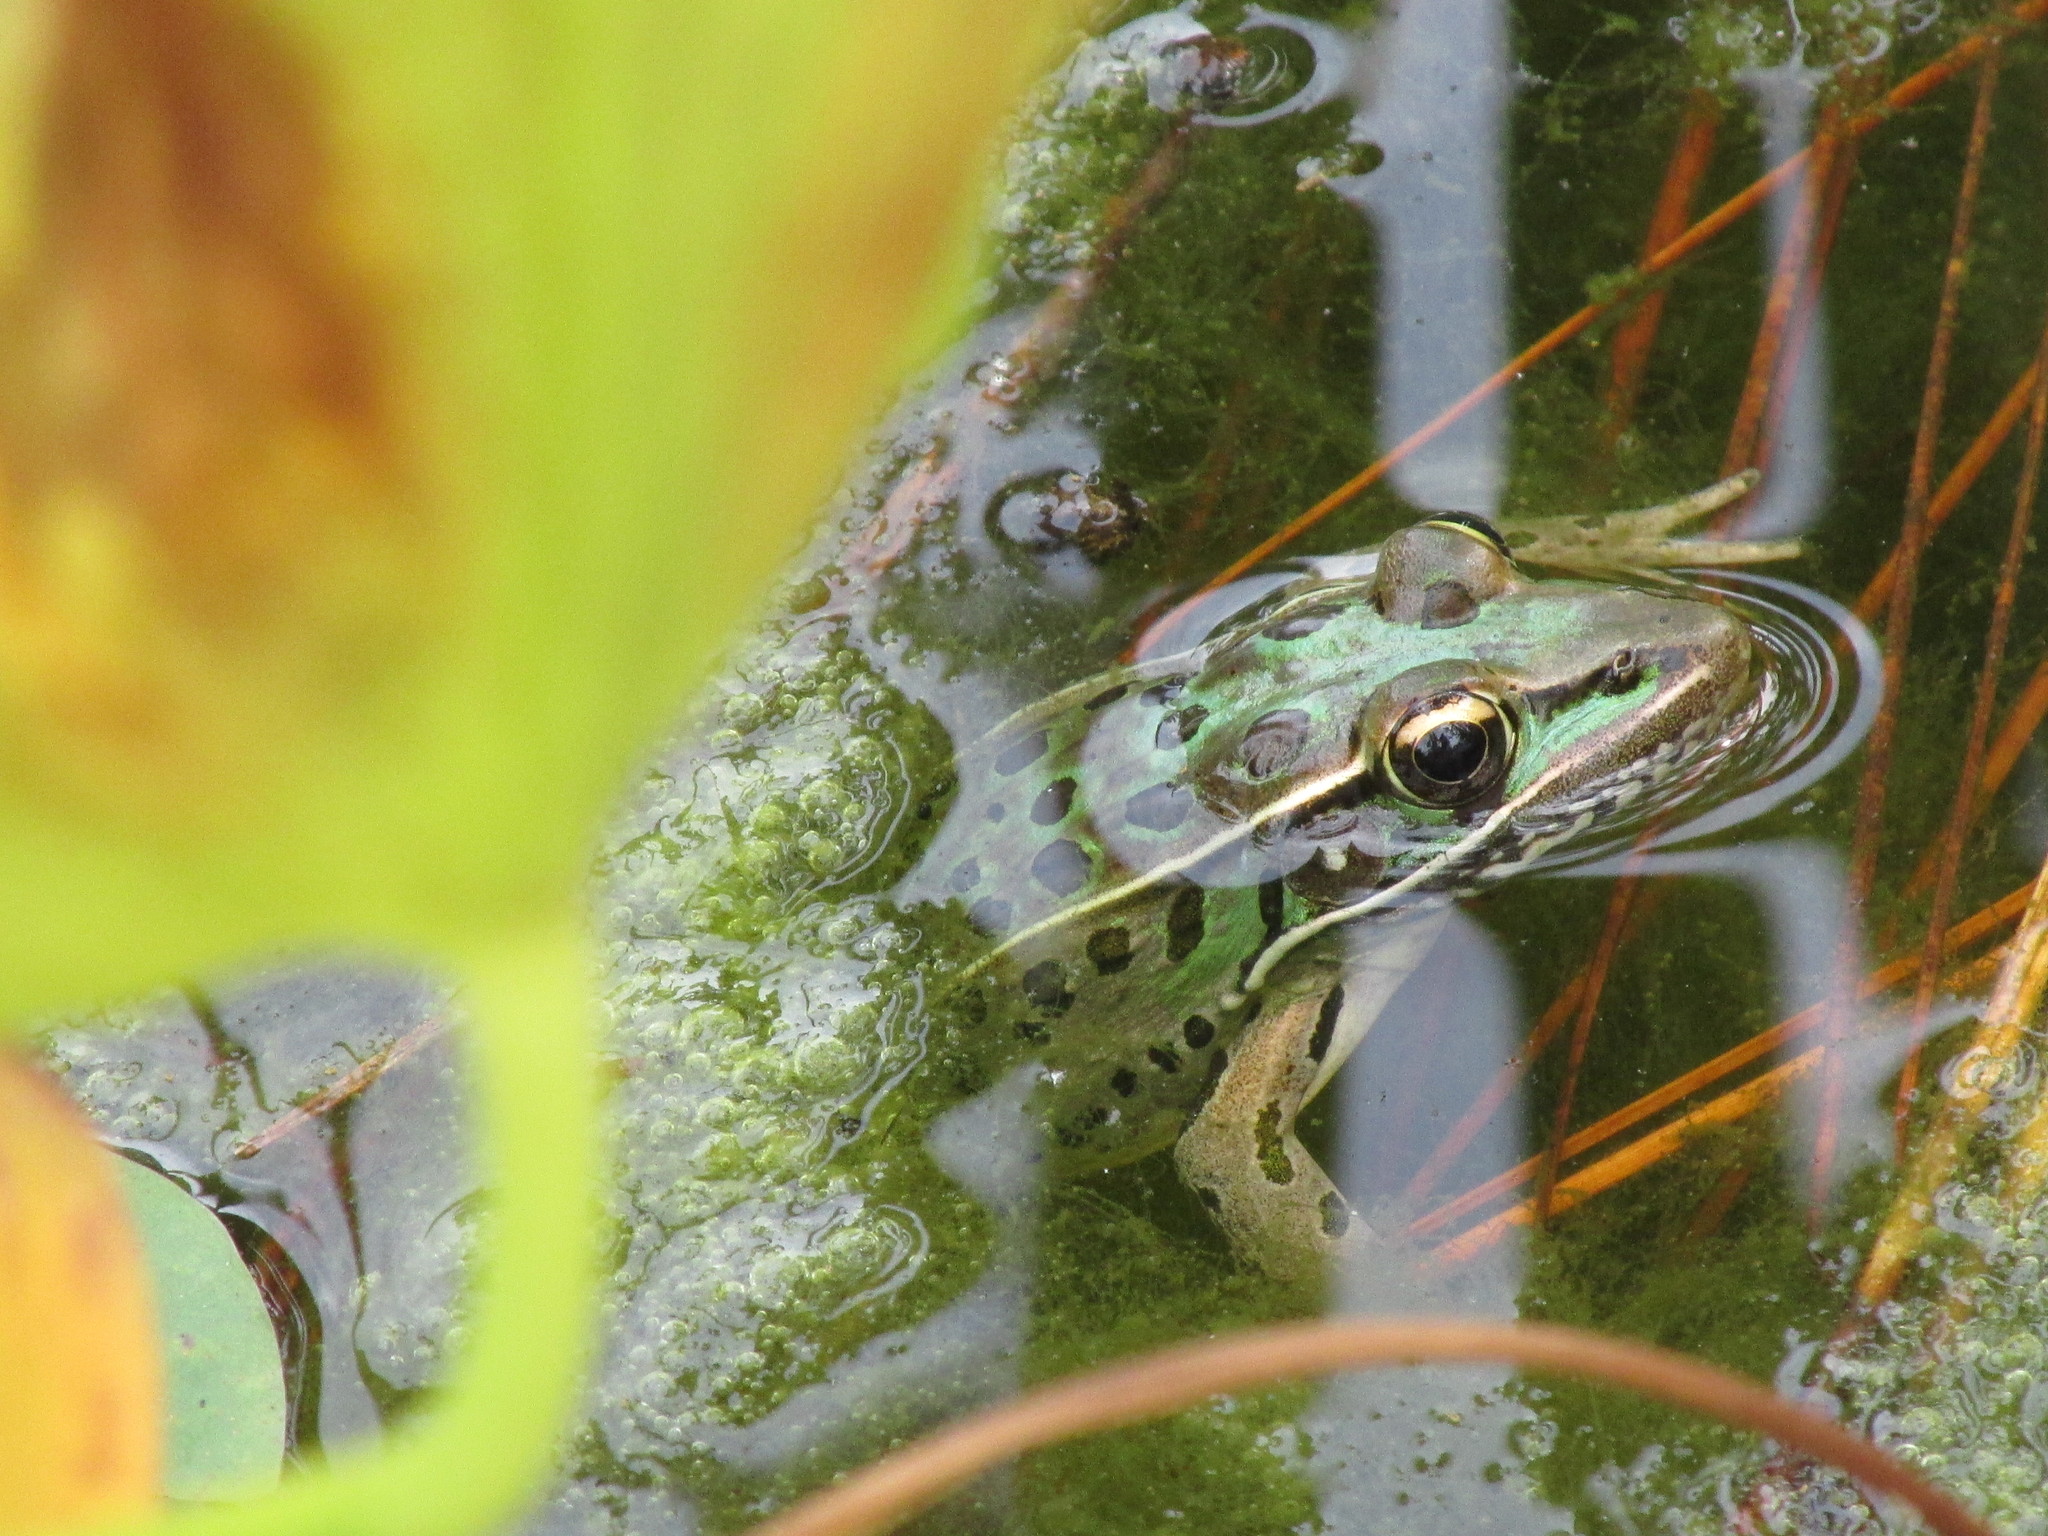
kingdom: Animalia
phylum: Chordata
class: Amphibia
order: Anura
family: Ranidae
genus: Lithobates
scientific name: Lithobates sphenocephalus
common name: Southern leopard frog
